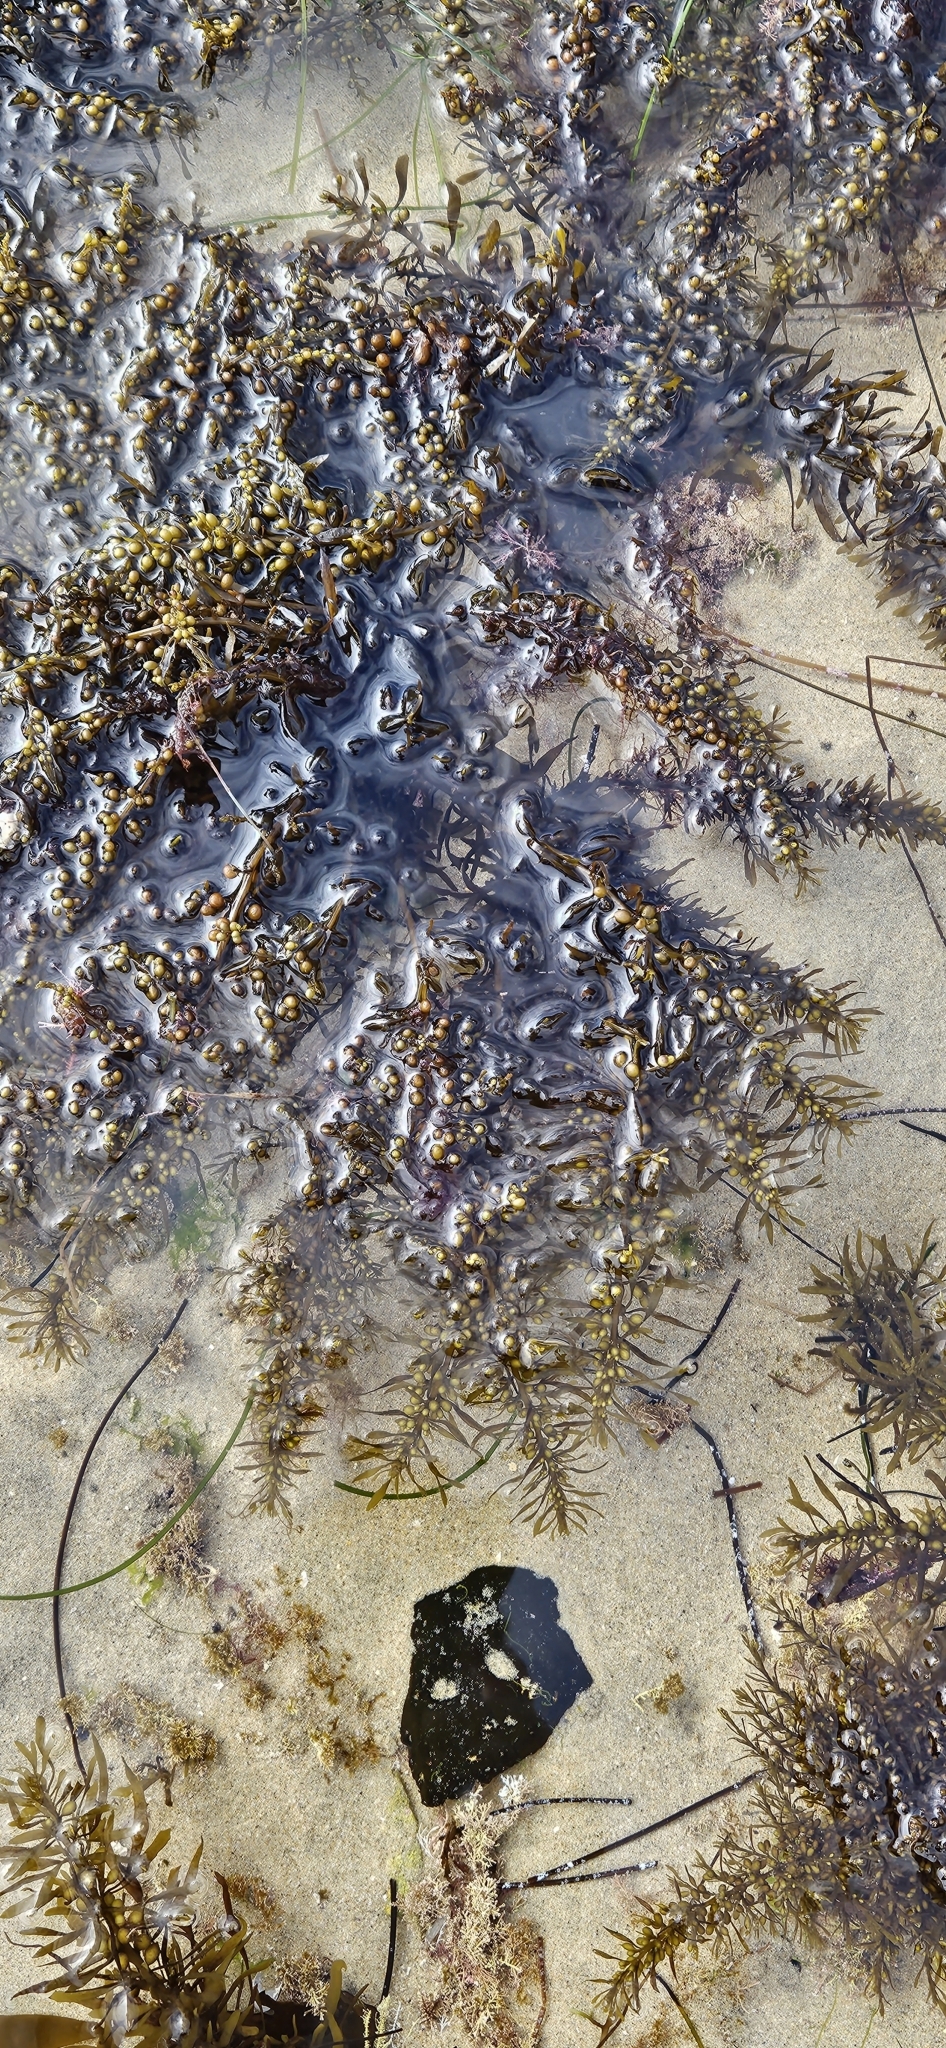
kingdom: Chromista
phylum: Ochrophyta
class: Phaeophyceae
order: Fucales
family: Sargassaceae
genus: Sargassum
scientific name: Sargassum muticum
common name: Japweed
